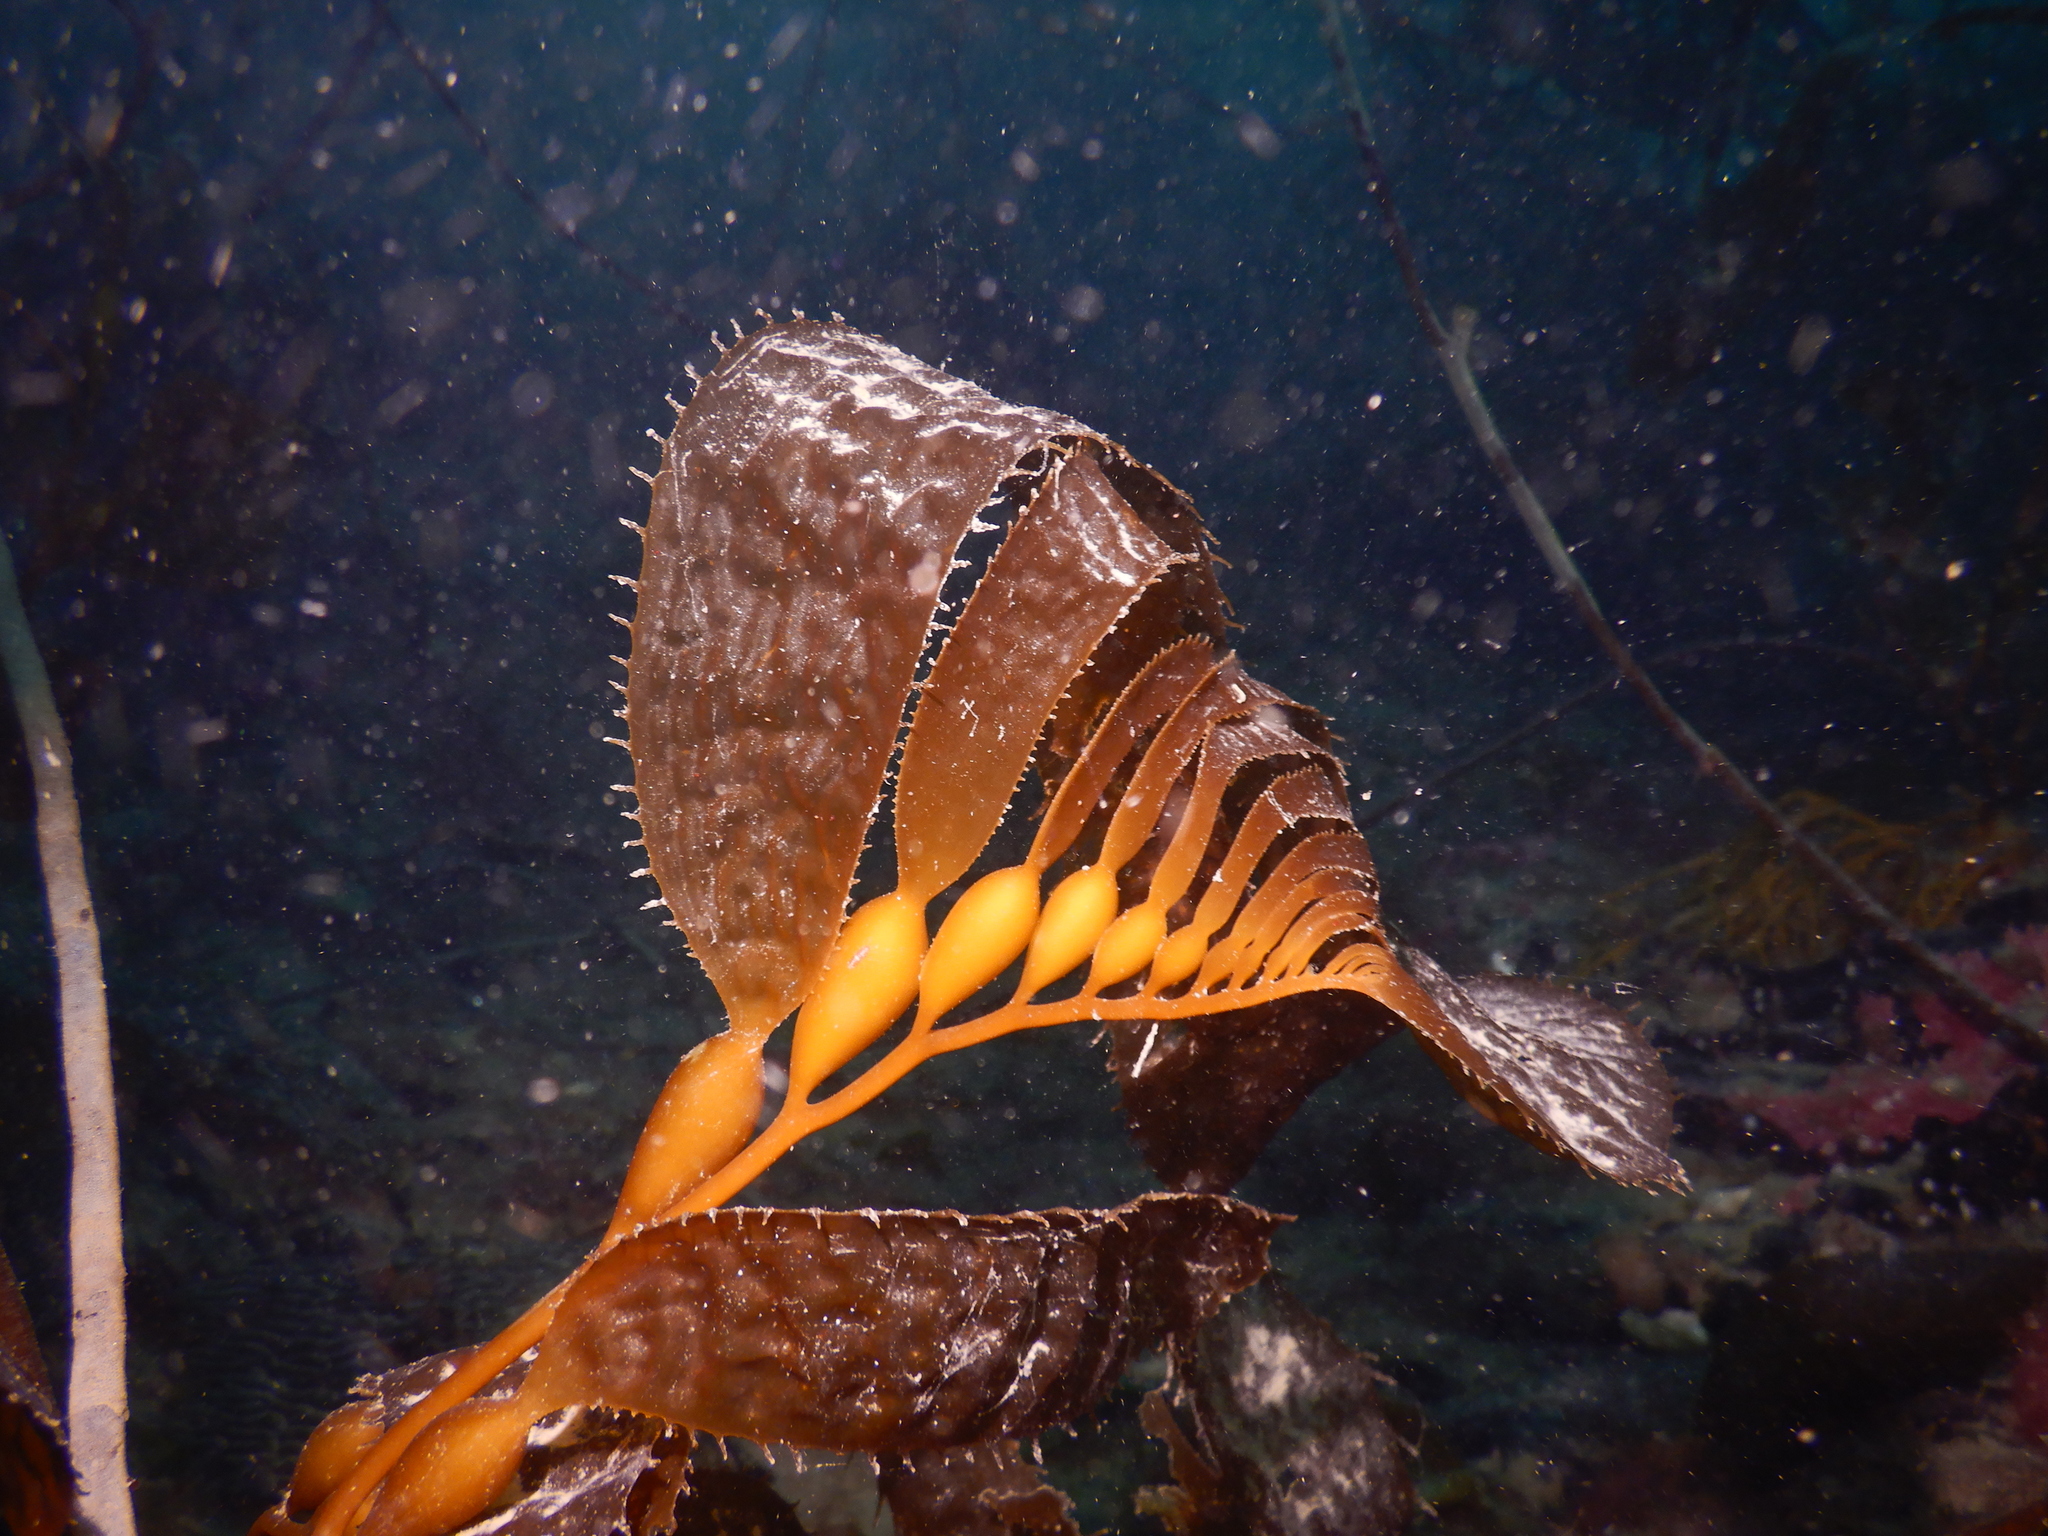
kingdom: Chromista
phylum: Ochrophyta
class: Phaeophyceae
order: Laminariales
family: Laminariaceae
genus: Macrocystis
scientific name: Macrocystis pyrifera
